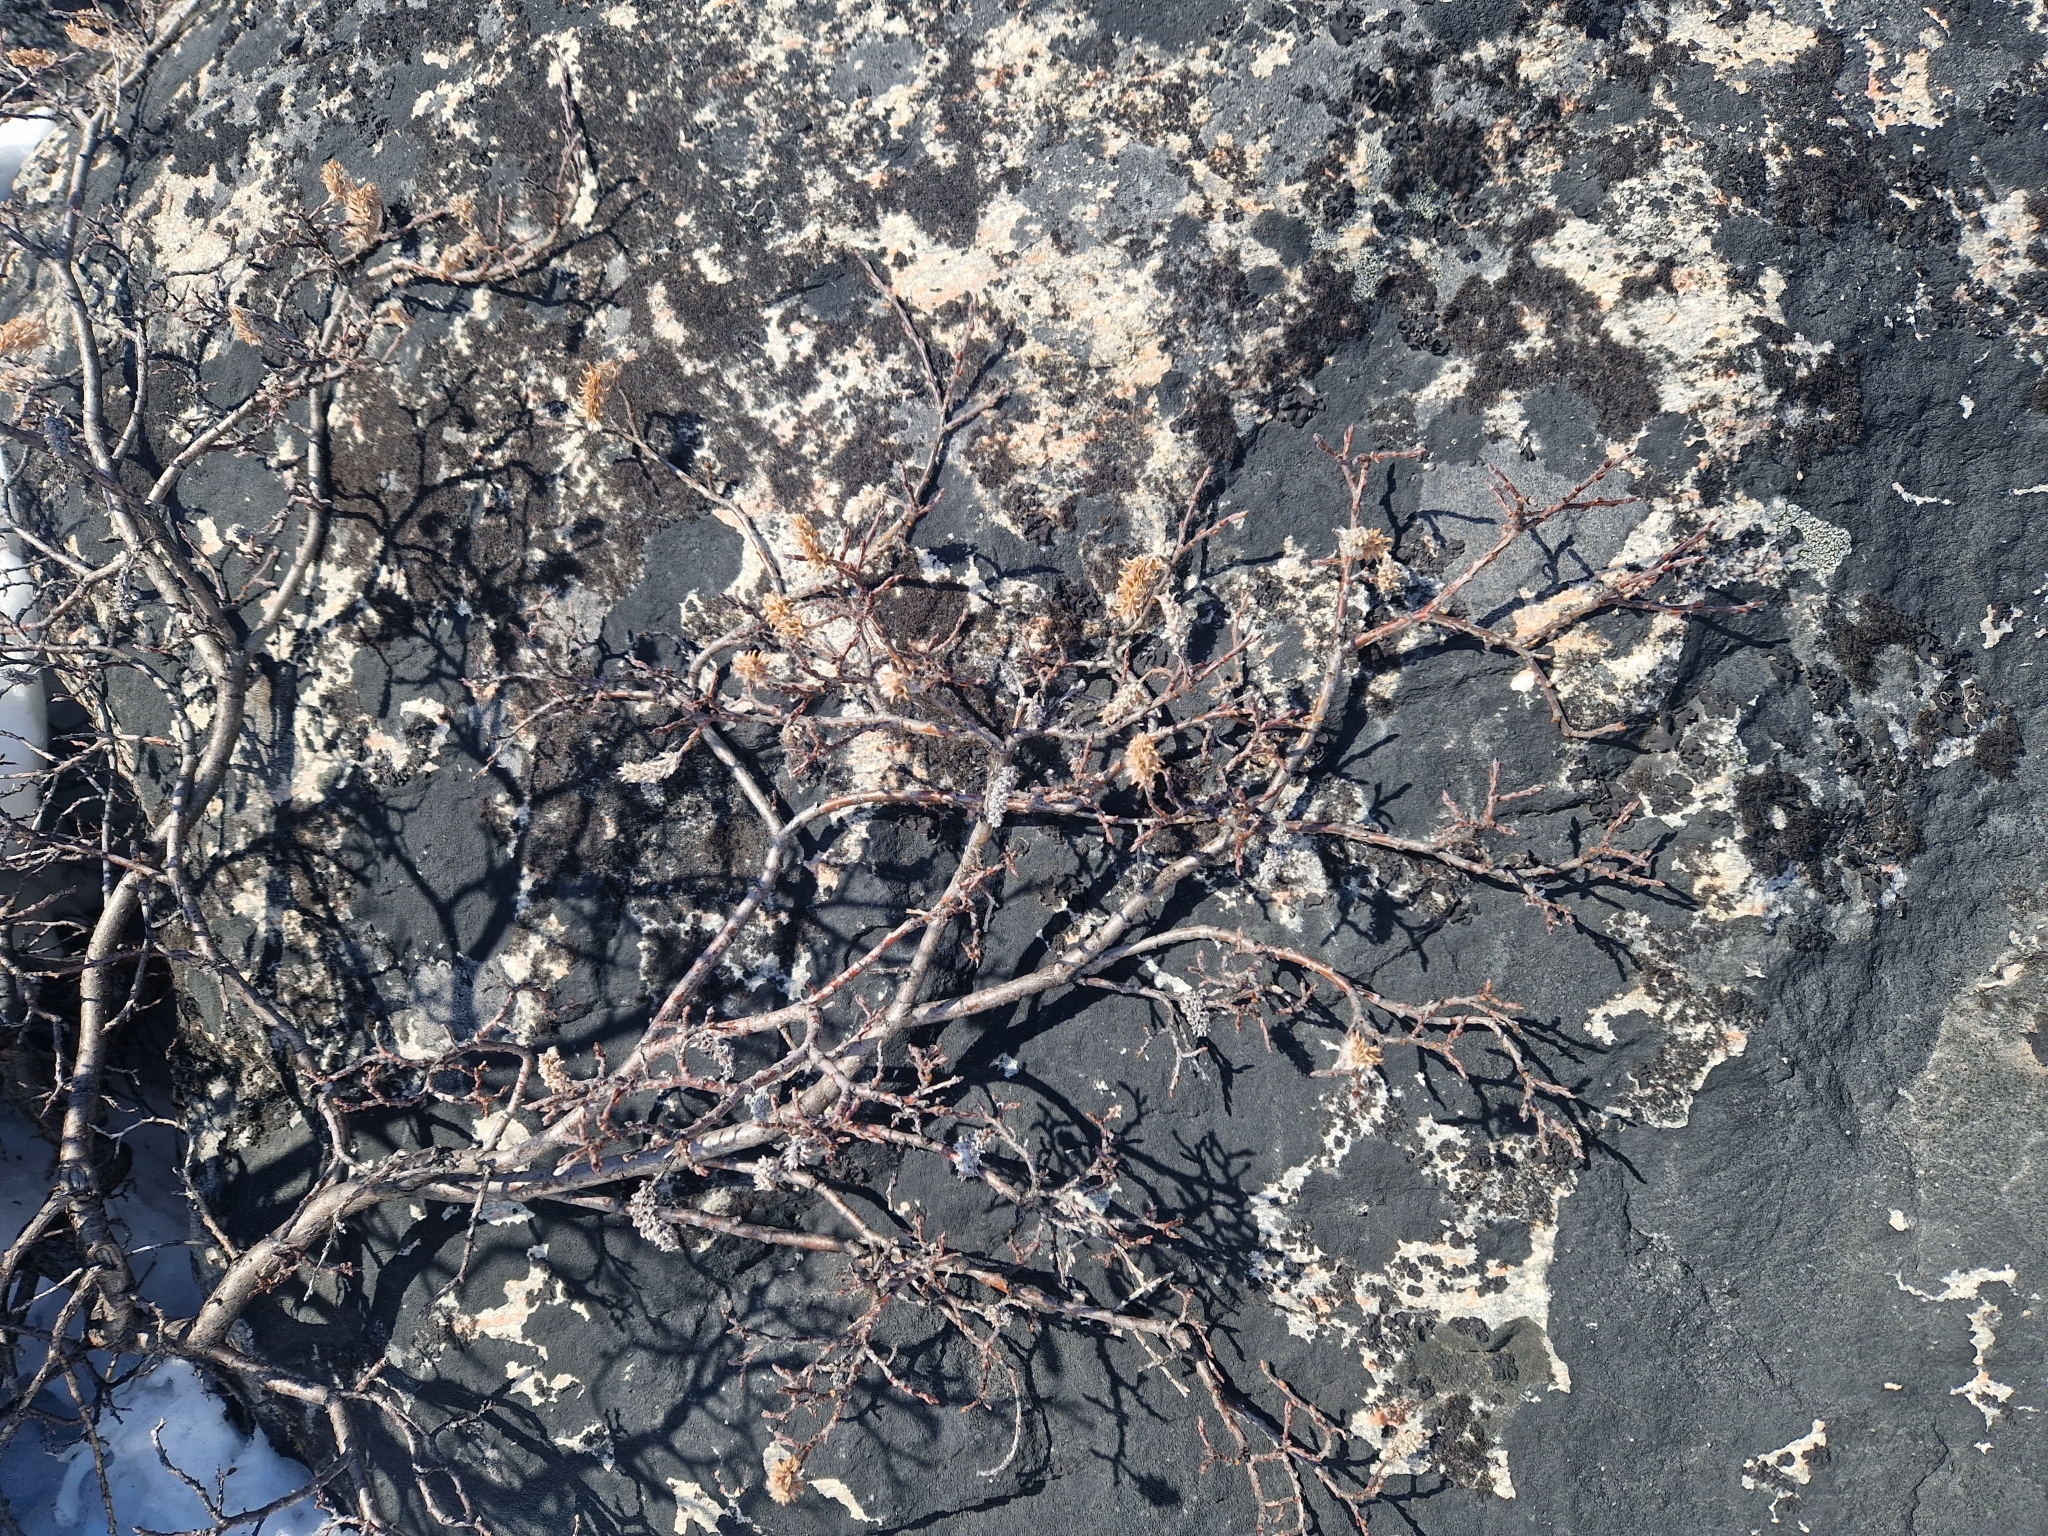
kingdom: Plantae
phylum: Tracheophyta
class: Magnoliopsida
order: Malpighiales
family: Salicaceae
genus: Salix
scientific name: Salix glauca
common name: Glaucous willow
